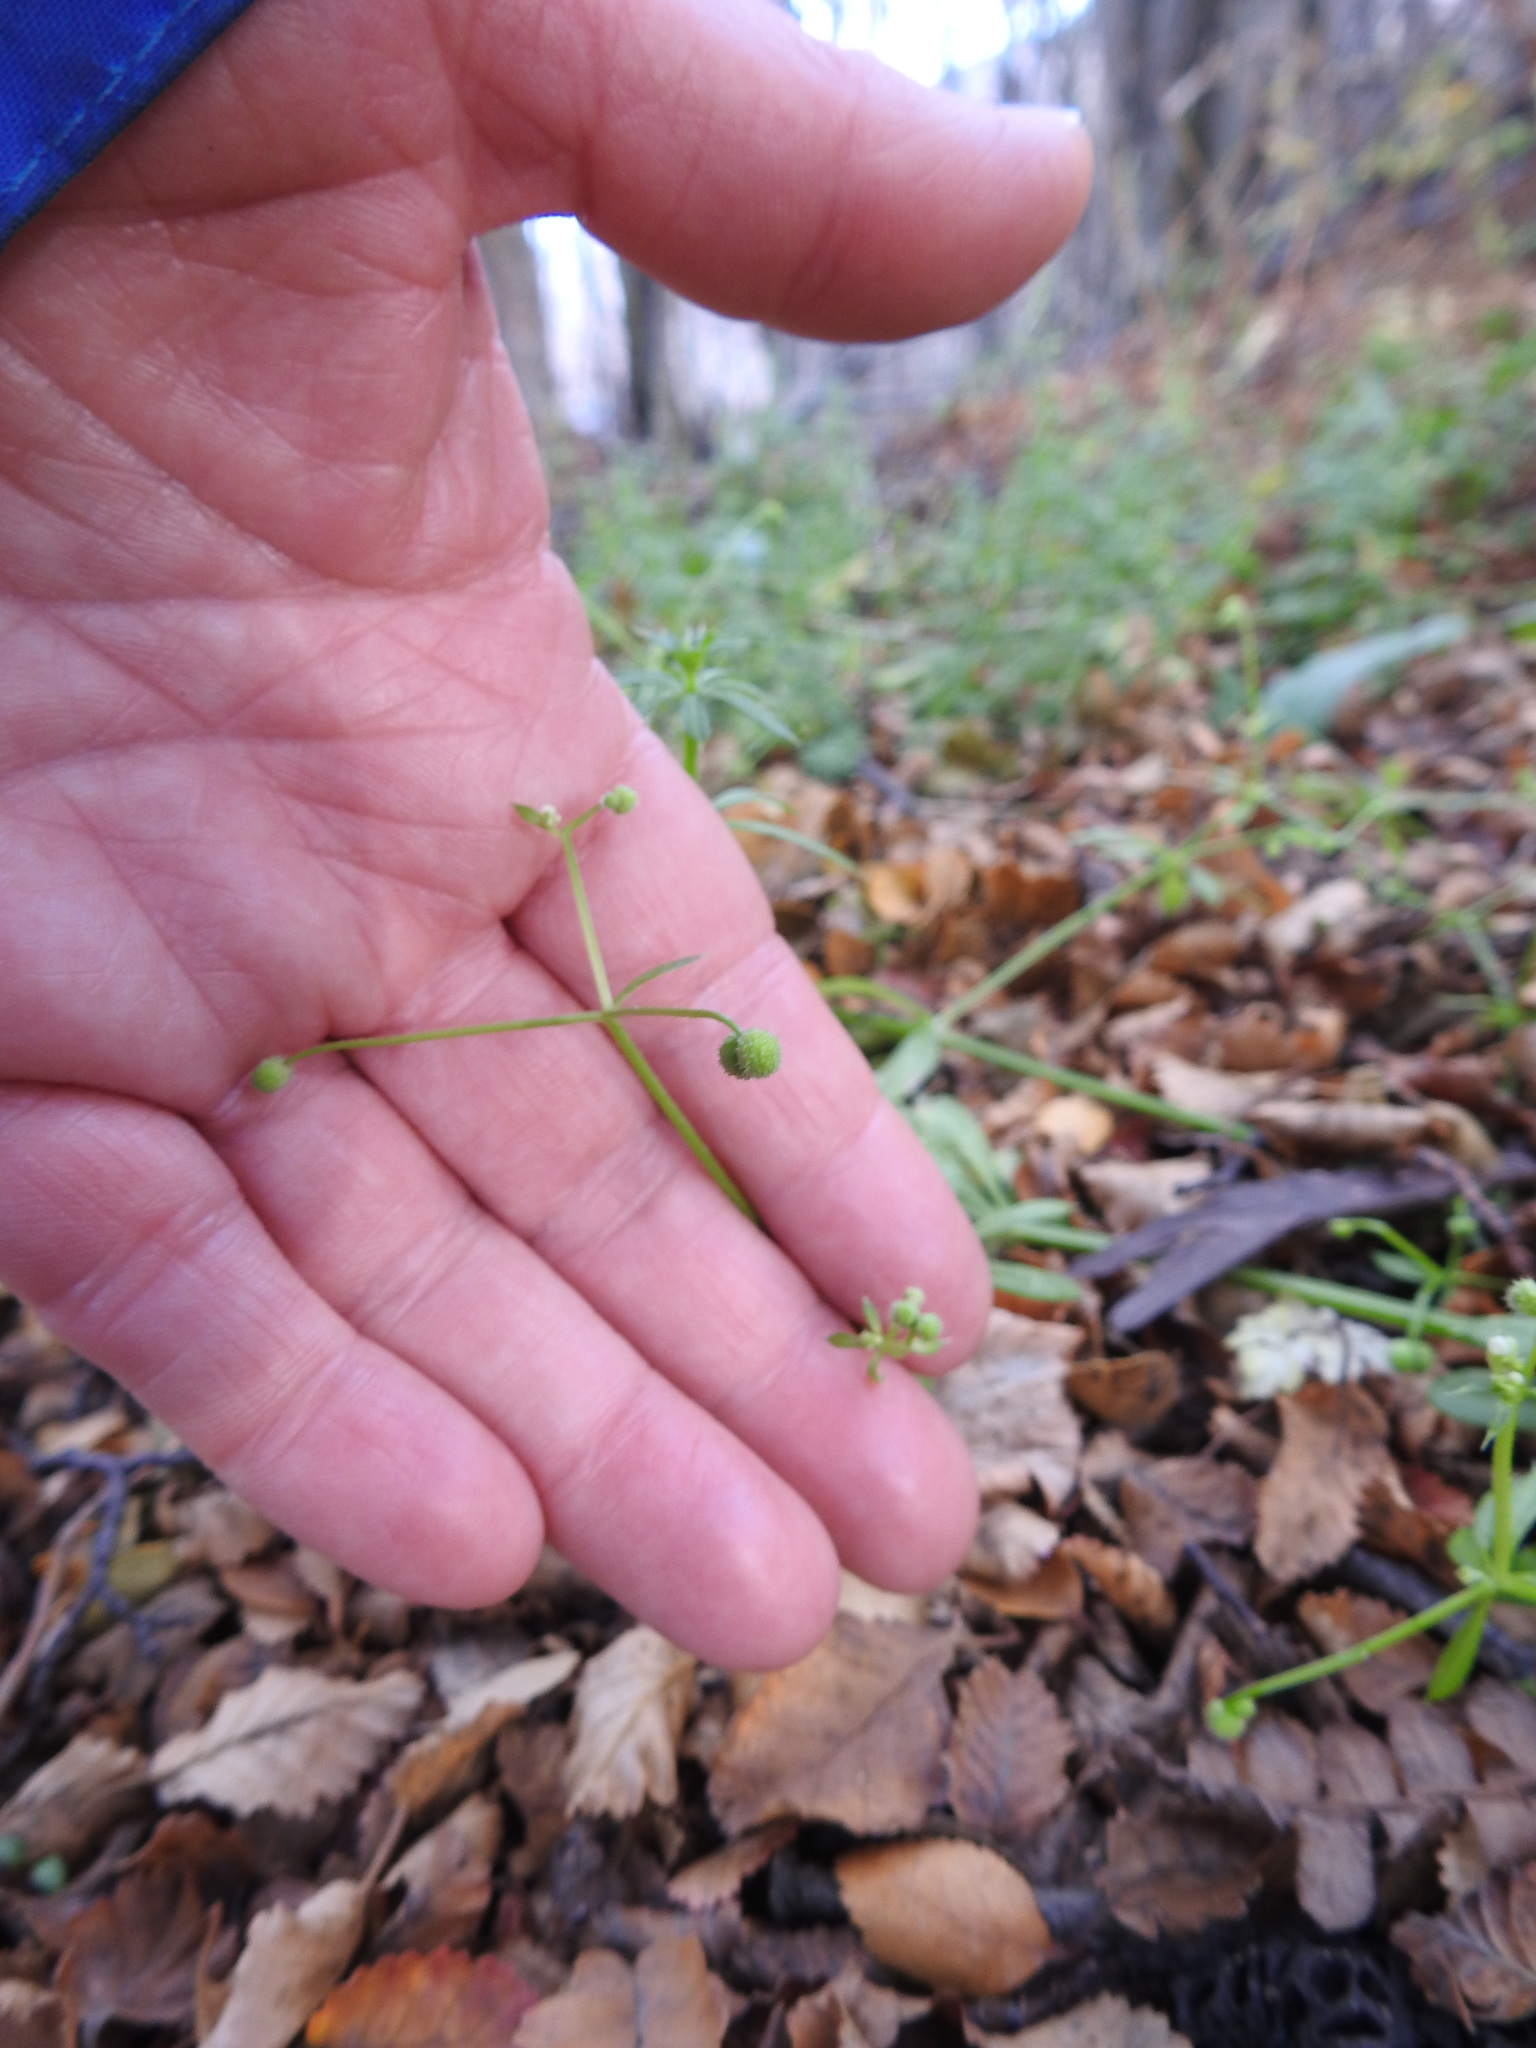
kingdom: Plantae
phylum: Tracheophyta
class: Magnoliopsida
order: Gentianales
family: Rubiaceae
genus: Galium
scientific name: Galium aparine
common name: Cleavers
